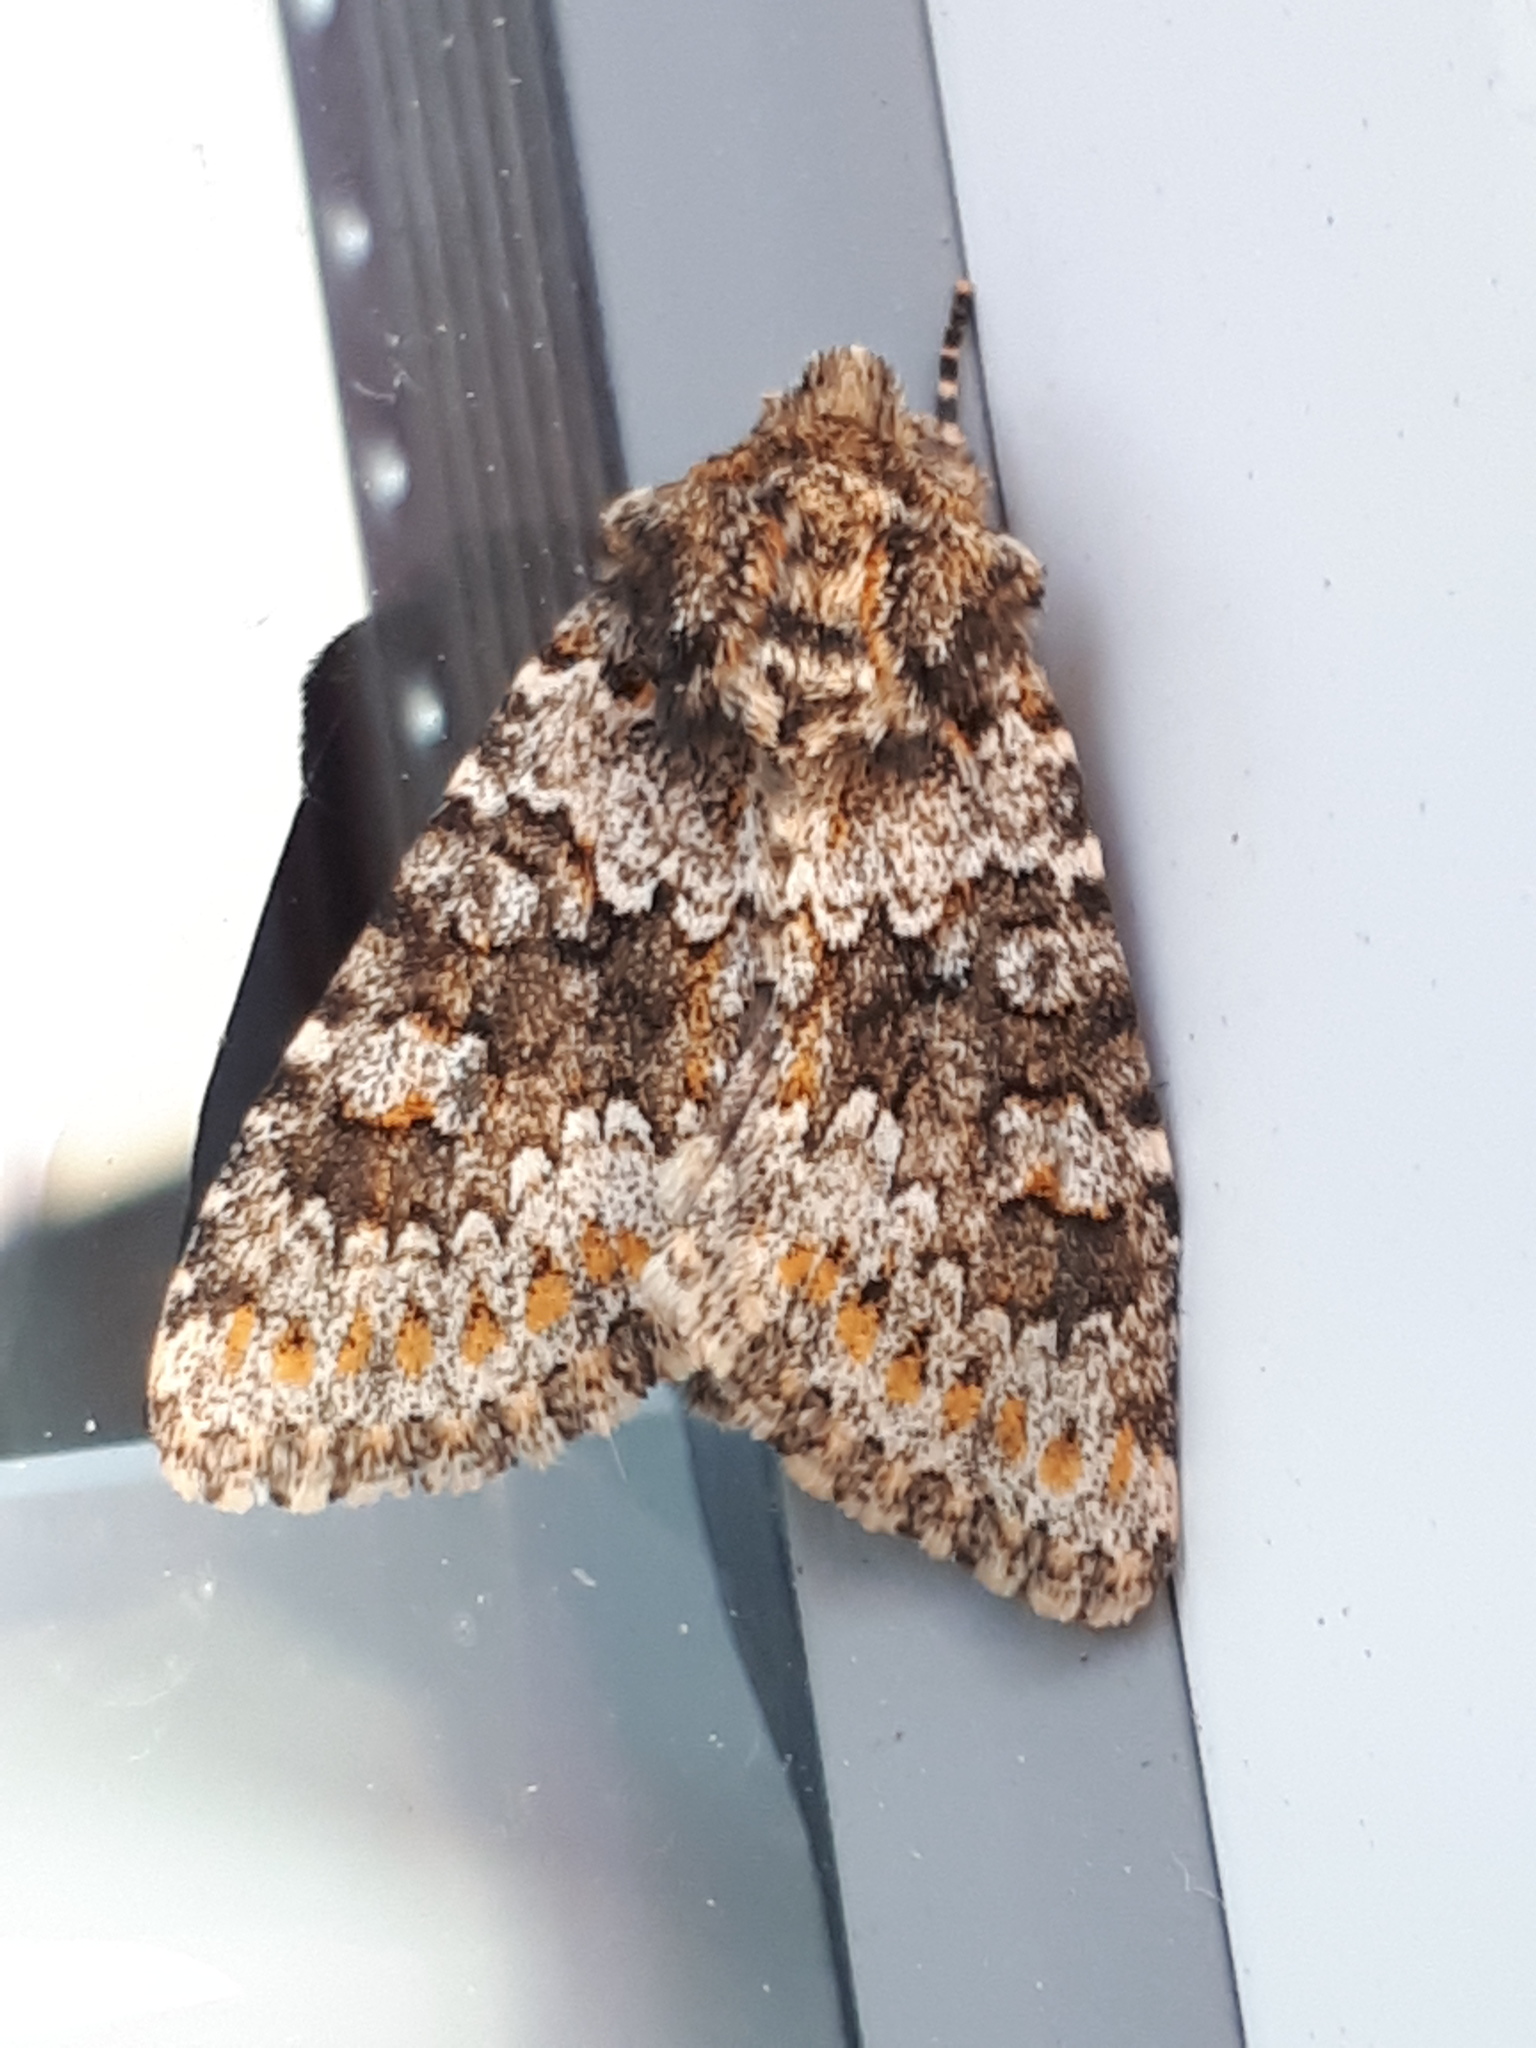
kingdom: Animalia
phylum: Arthropoda
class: Insecta
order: Lepidoptera
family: Noctuidae
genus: Hecatera
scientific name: Hecatera dysodea
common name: Small ranunculus
